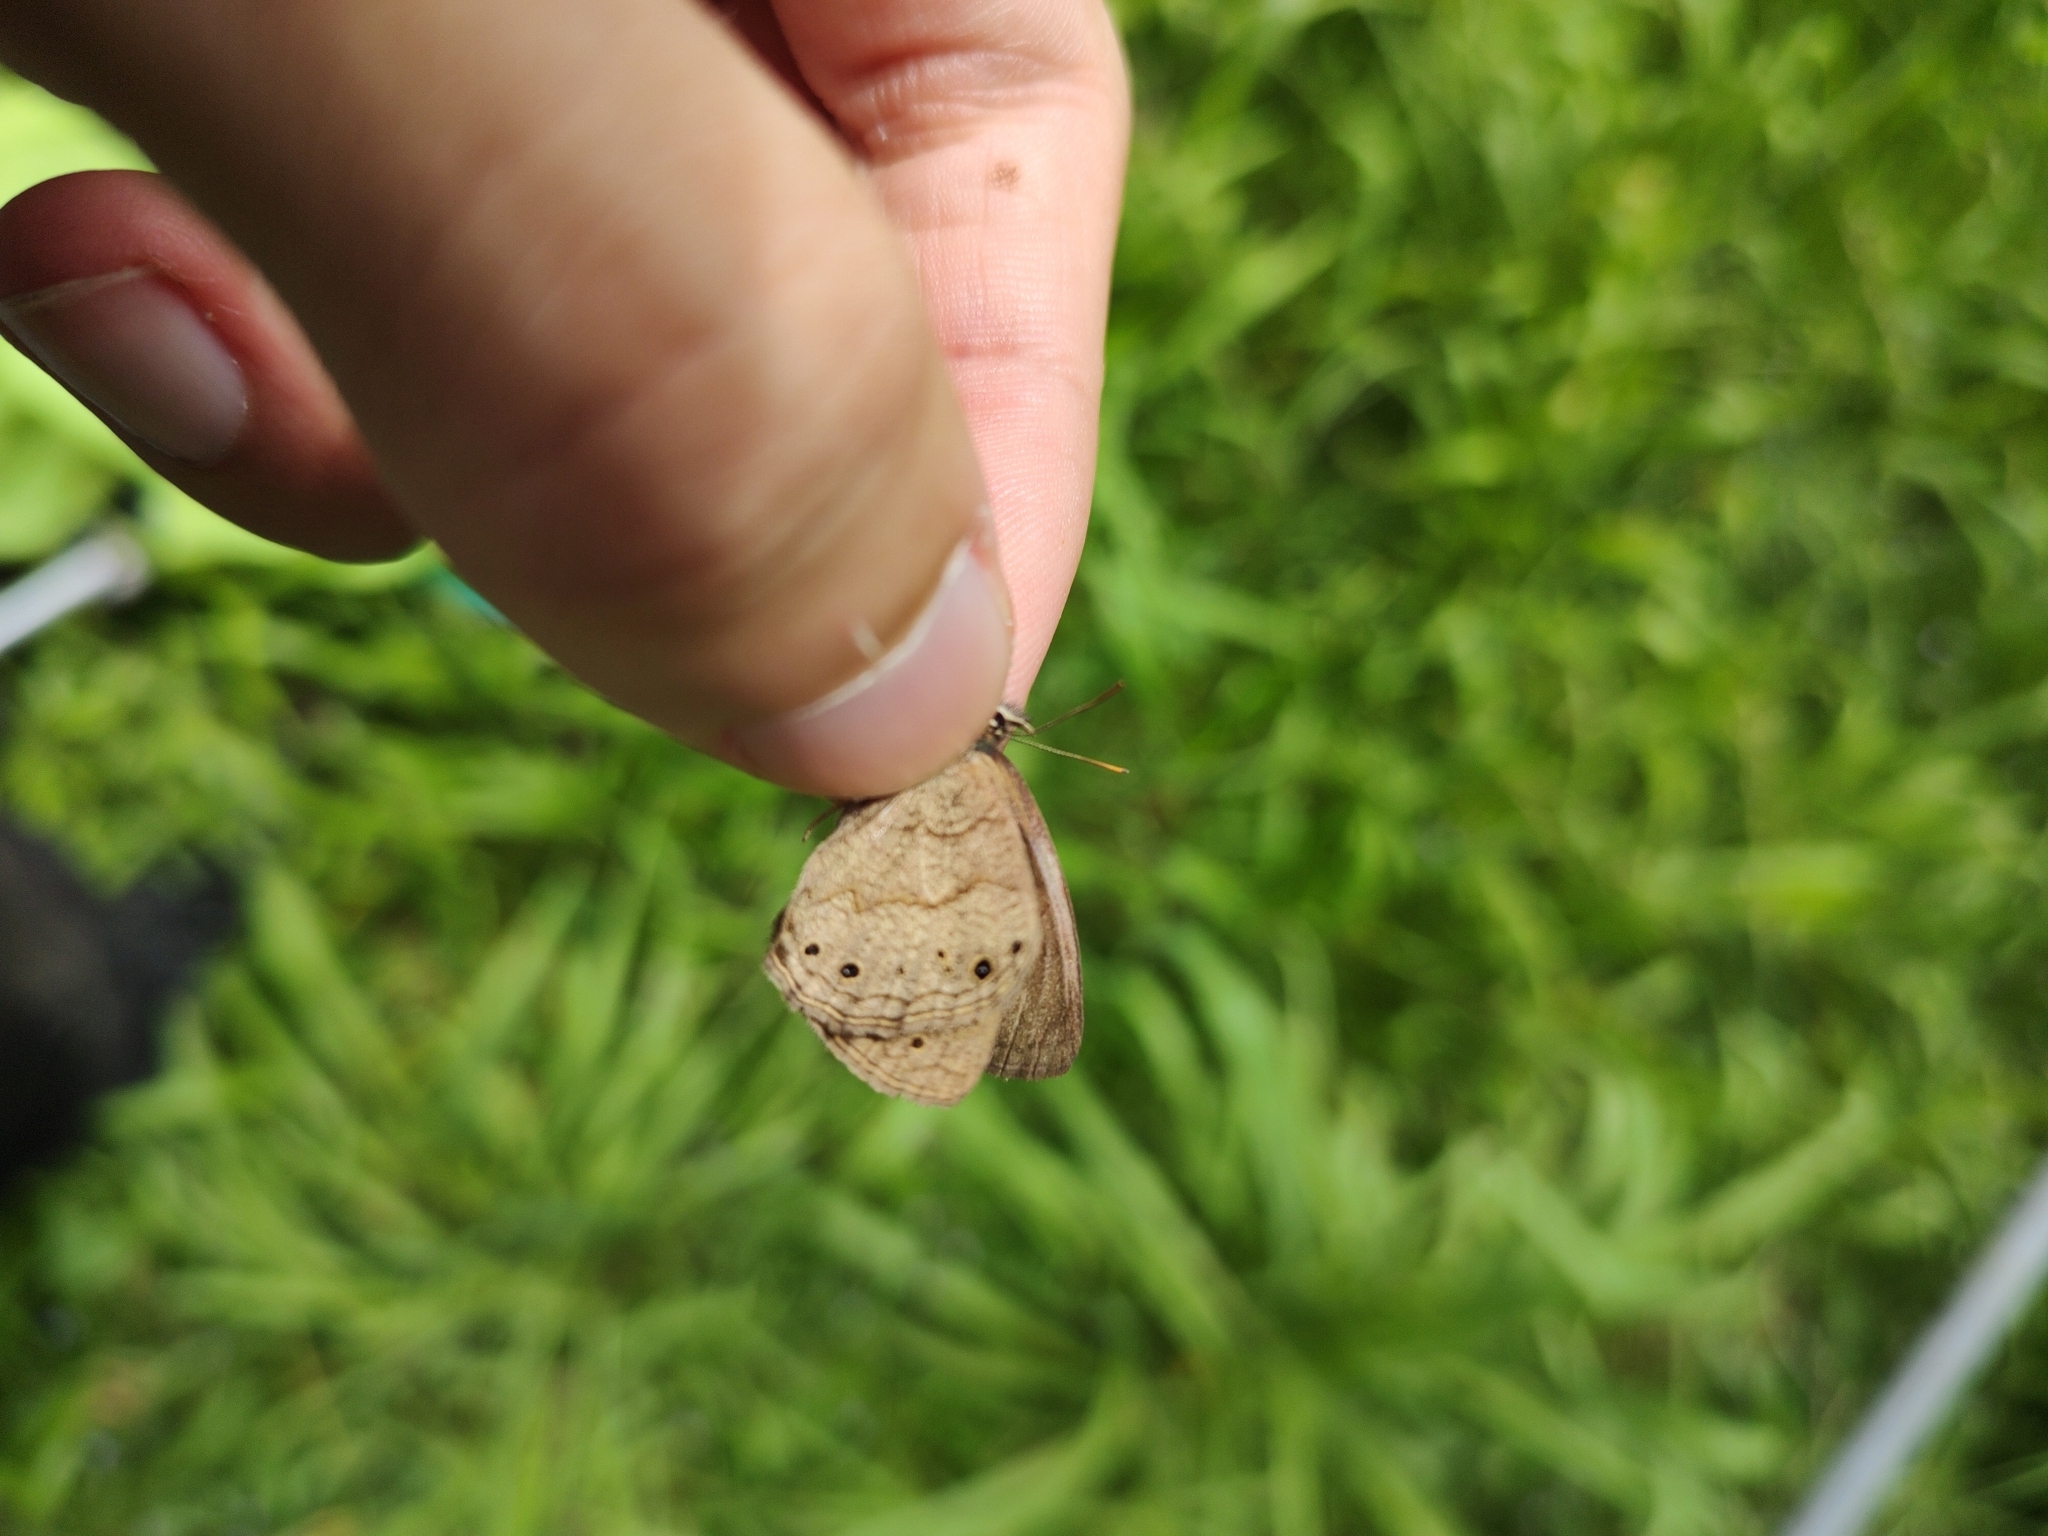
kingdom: Animalia
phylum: Arthropoda
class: Insecta
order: Lepidoptera
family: Nymphalidae
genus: Moneuptychia
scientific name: Moneuptychia soter
